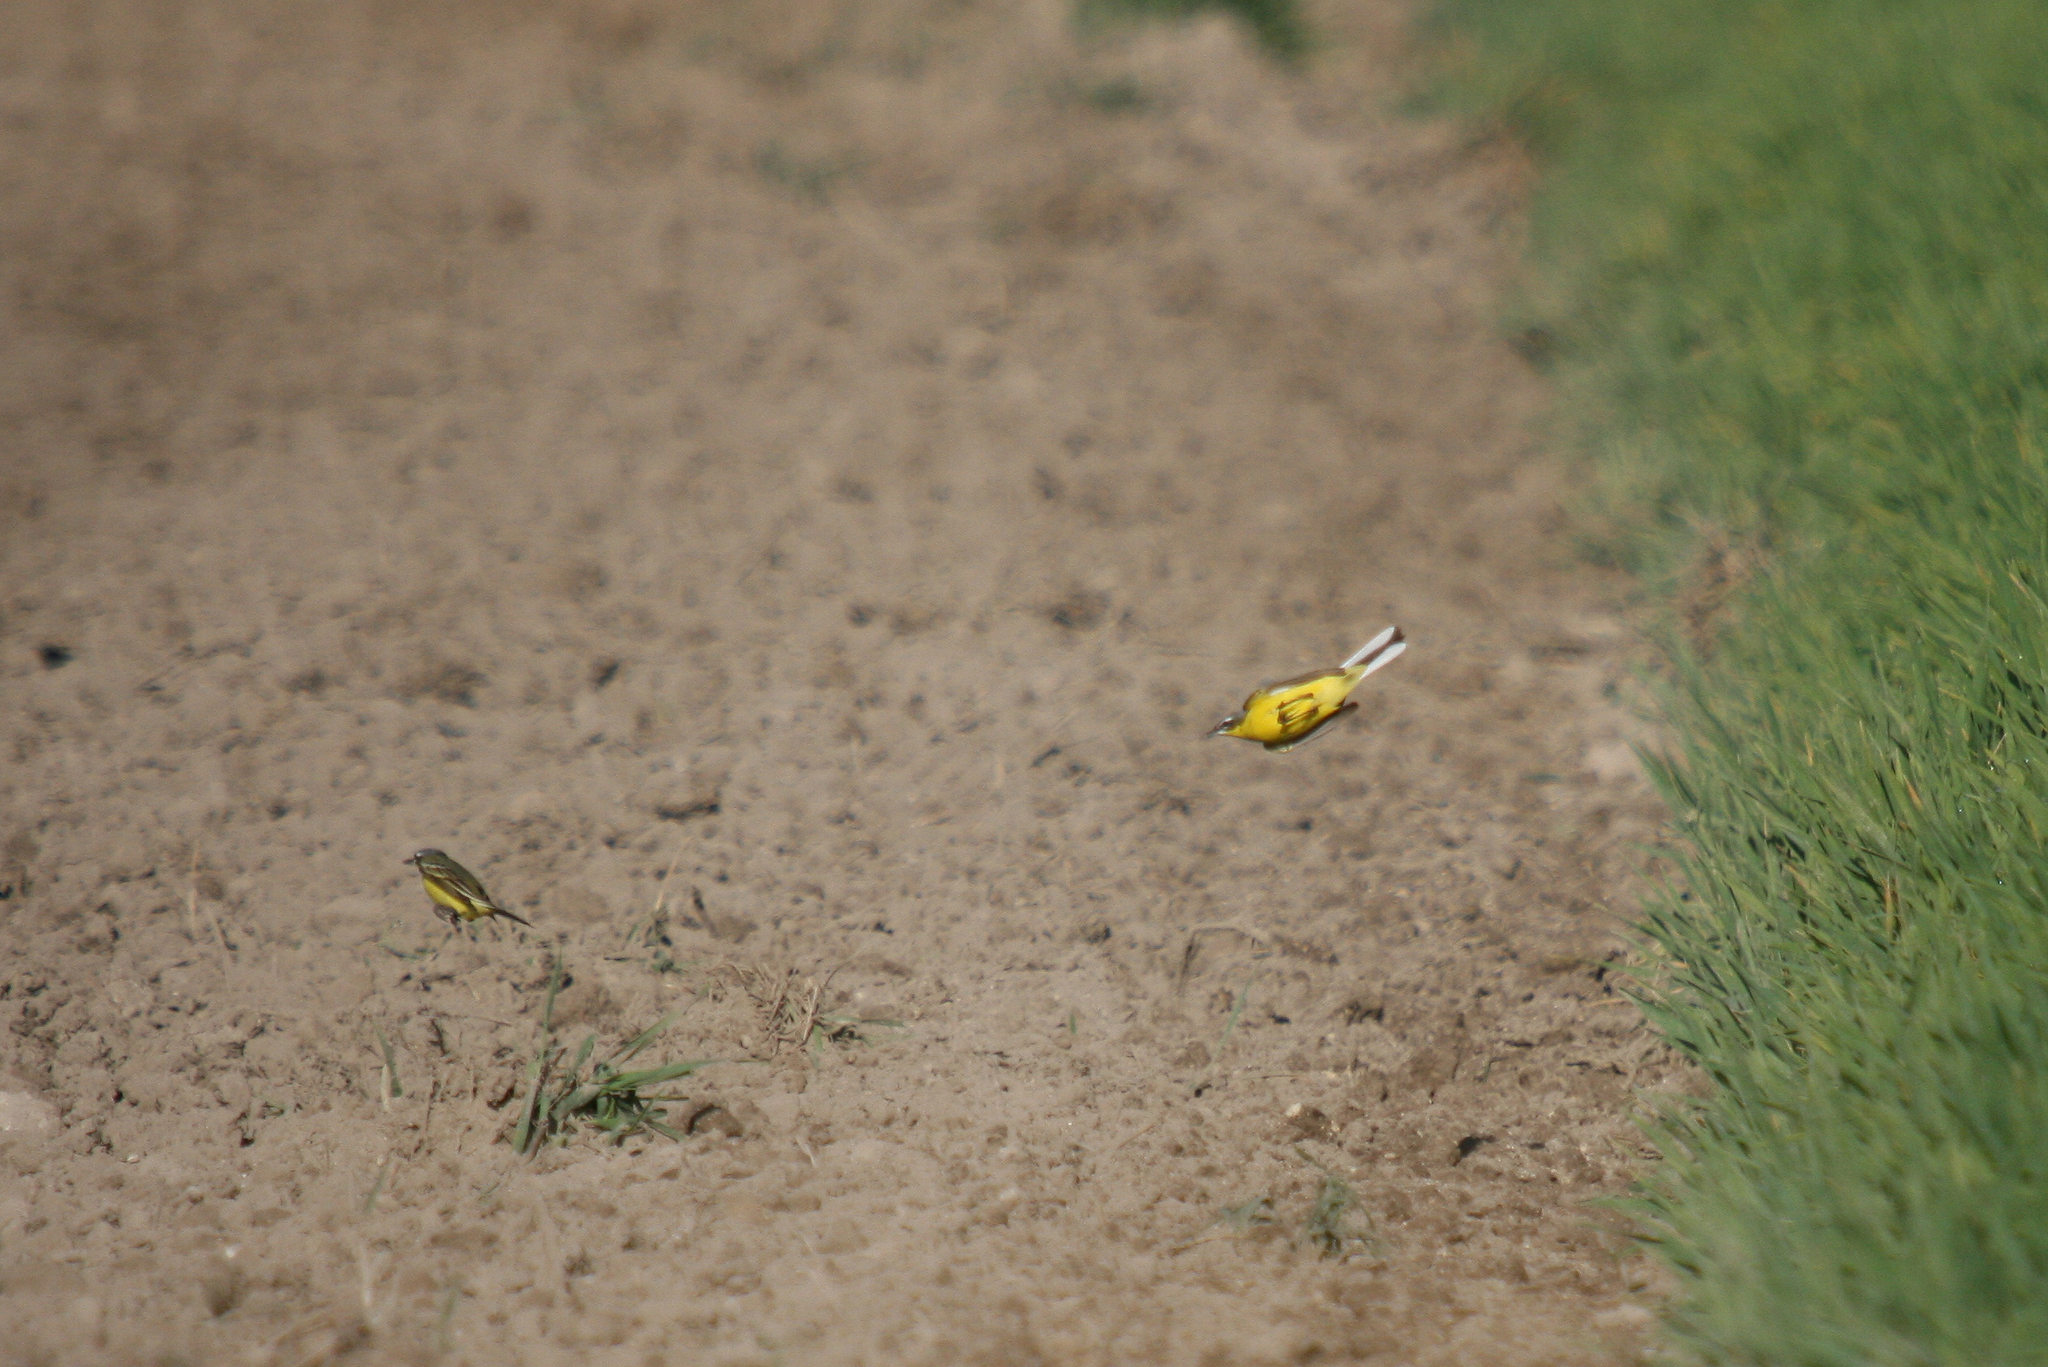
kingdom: Animalia
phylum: Chordata
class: Aves
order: Passeriformes
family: Motacillidae
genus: Motacilla
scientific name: Motacilla flava
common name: Western yellow wagtail
